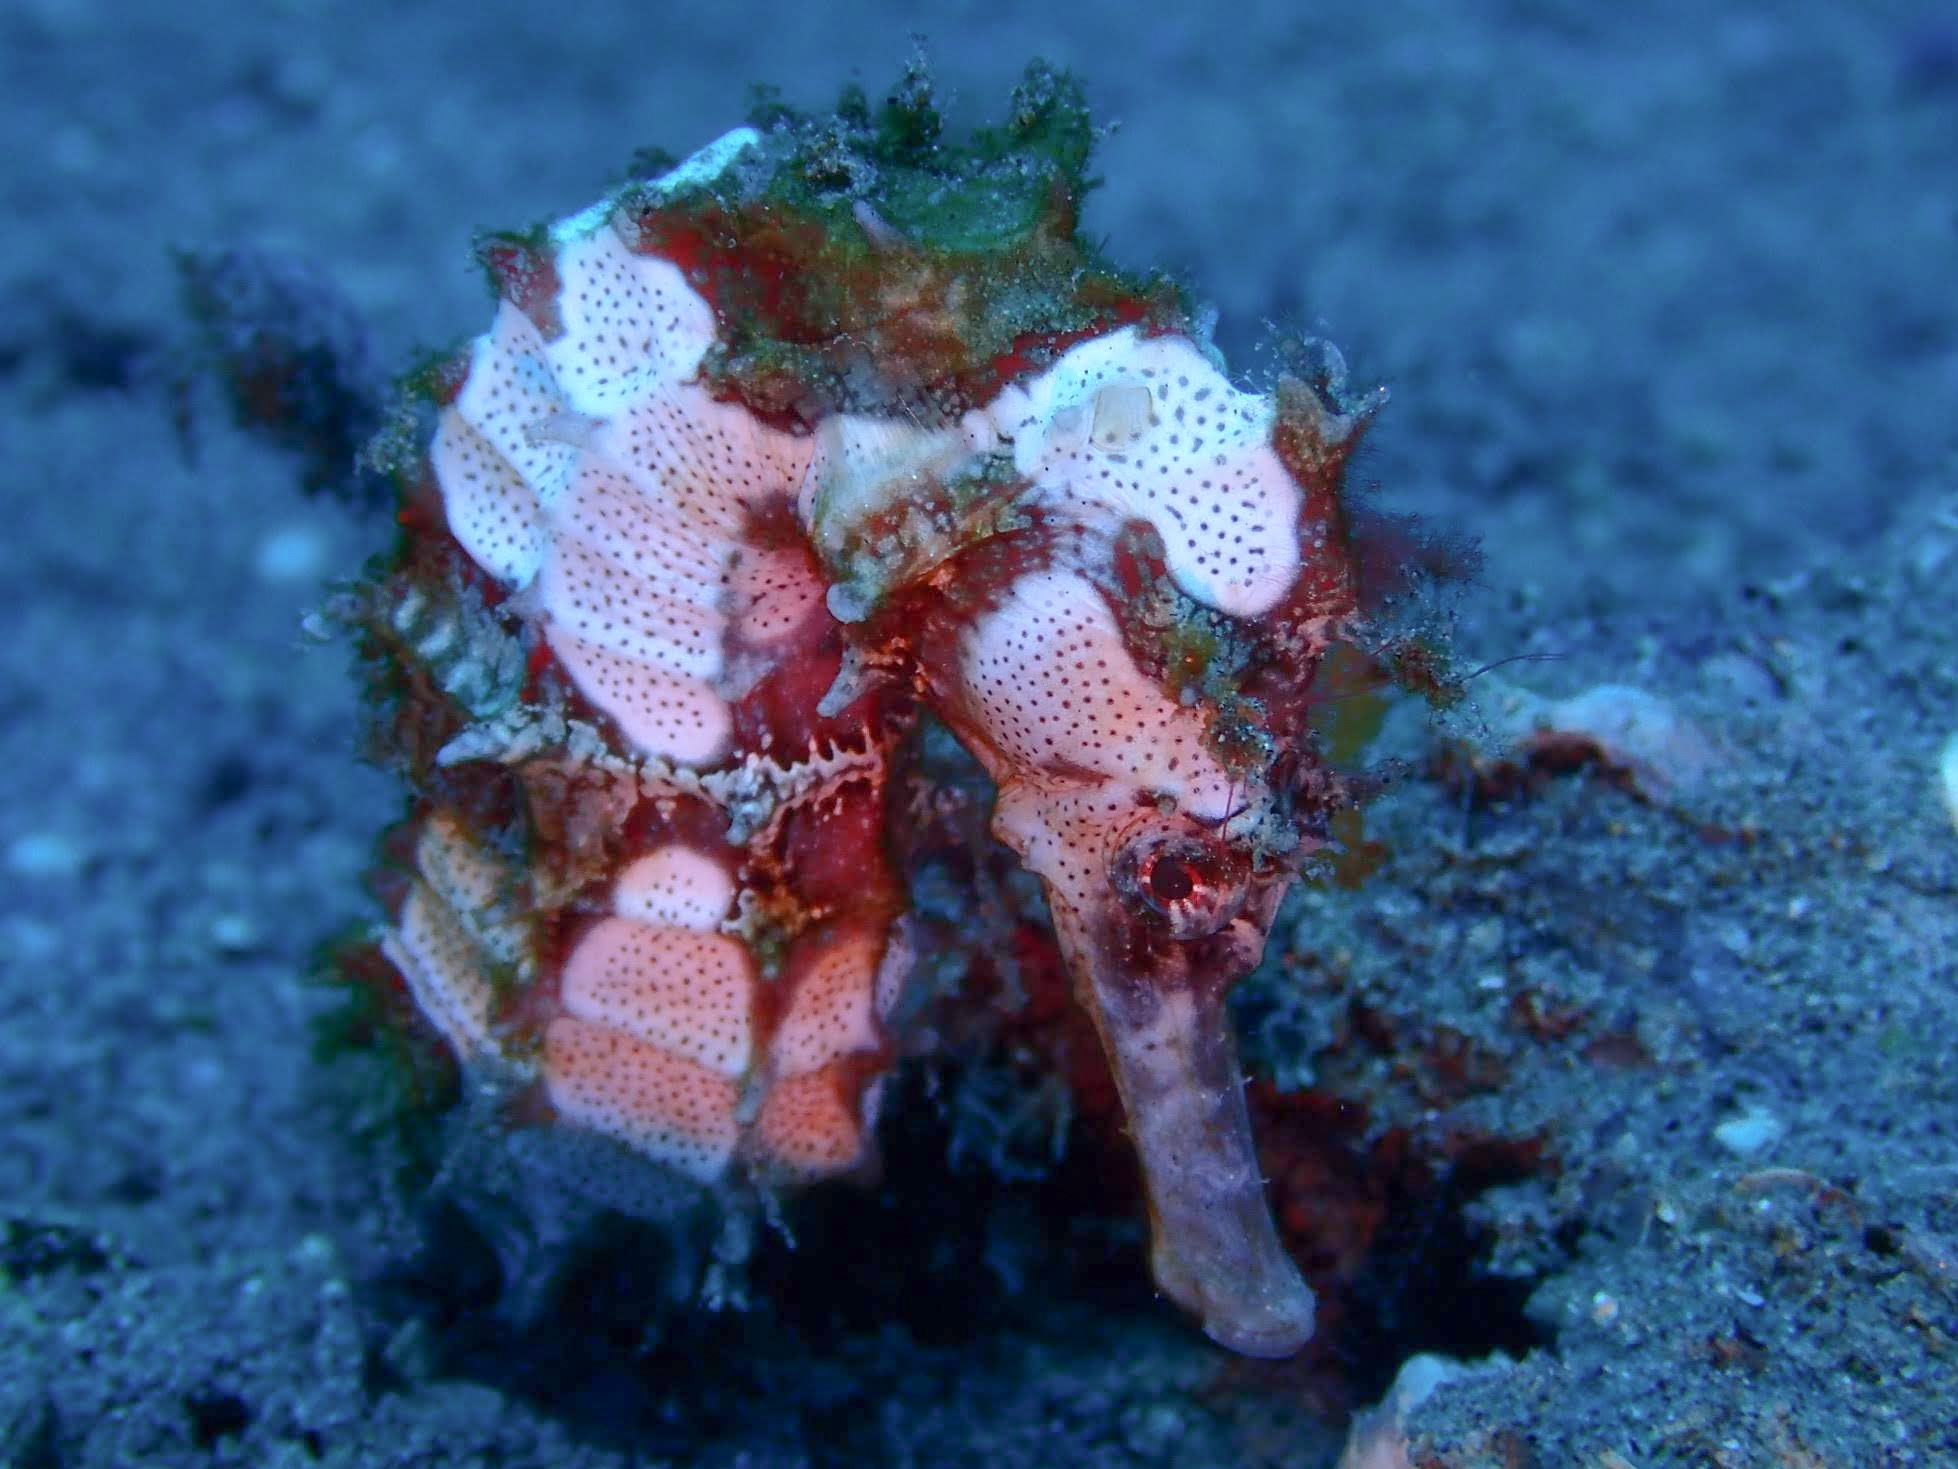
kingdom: Animalia
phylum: Chordata
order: Syngnathiformes
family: Syngnathidae
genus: Hippocampus
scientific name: Hippocampus kuda
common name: Spotted seahorse
